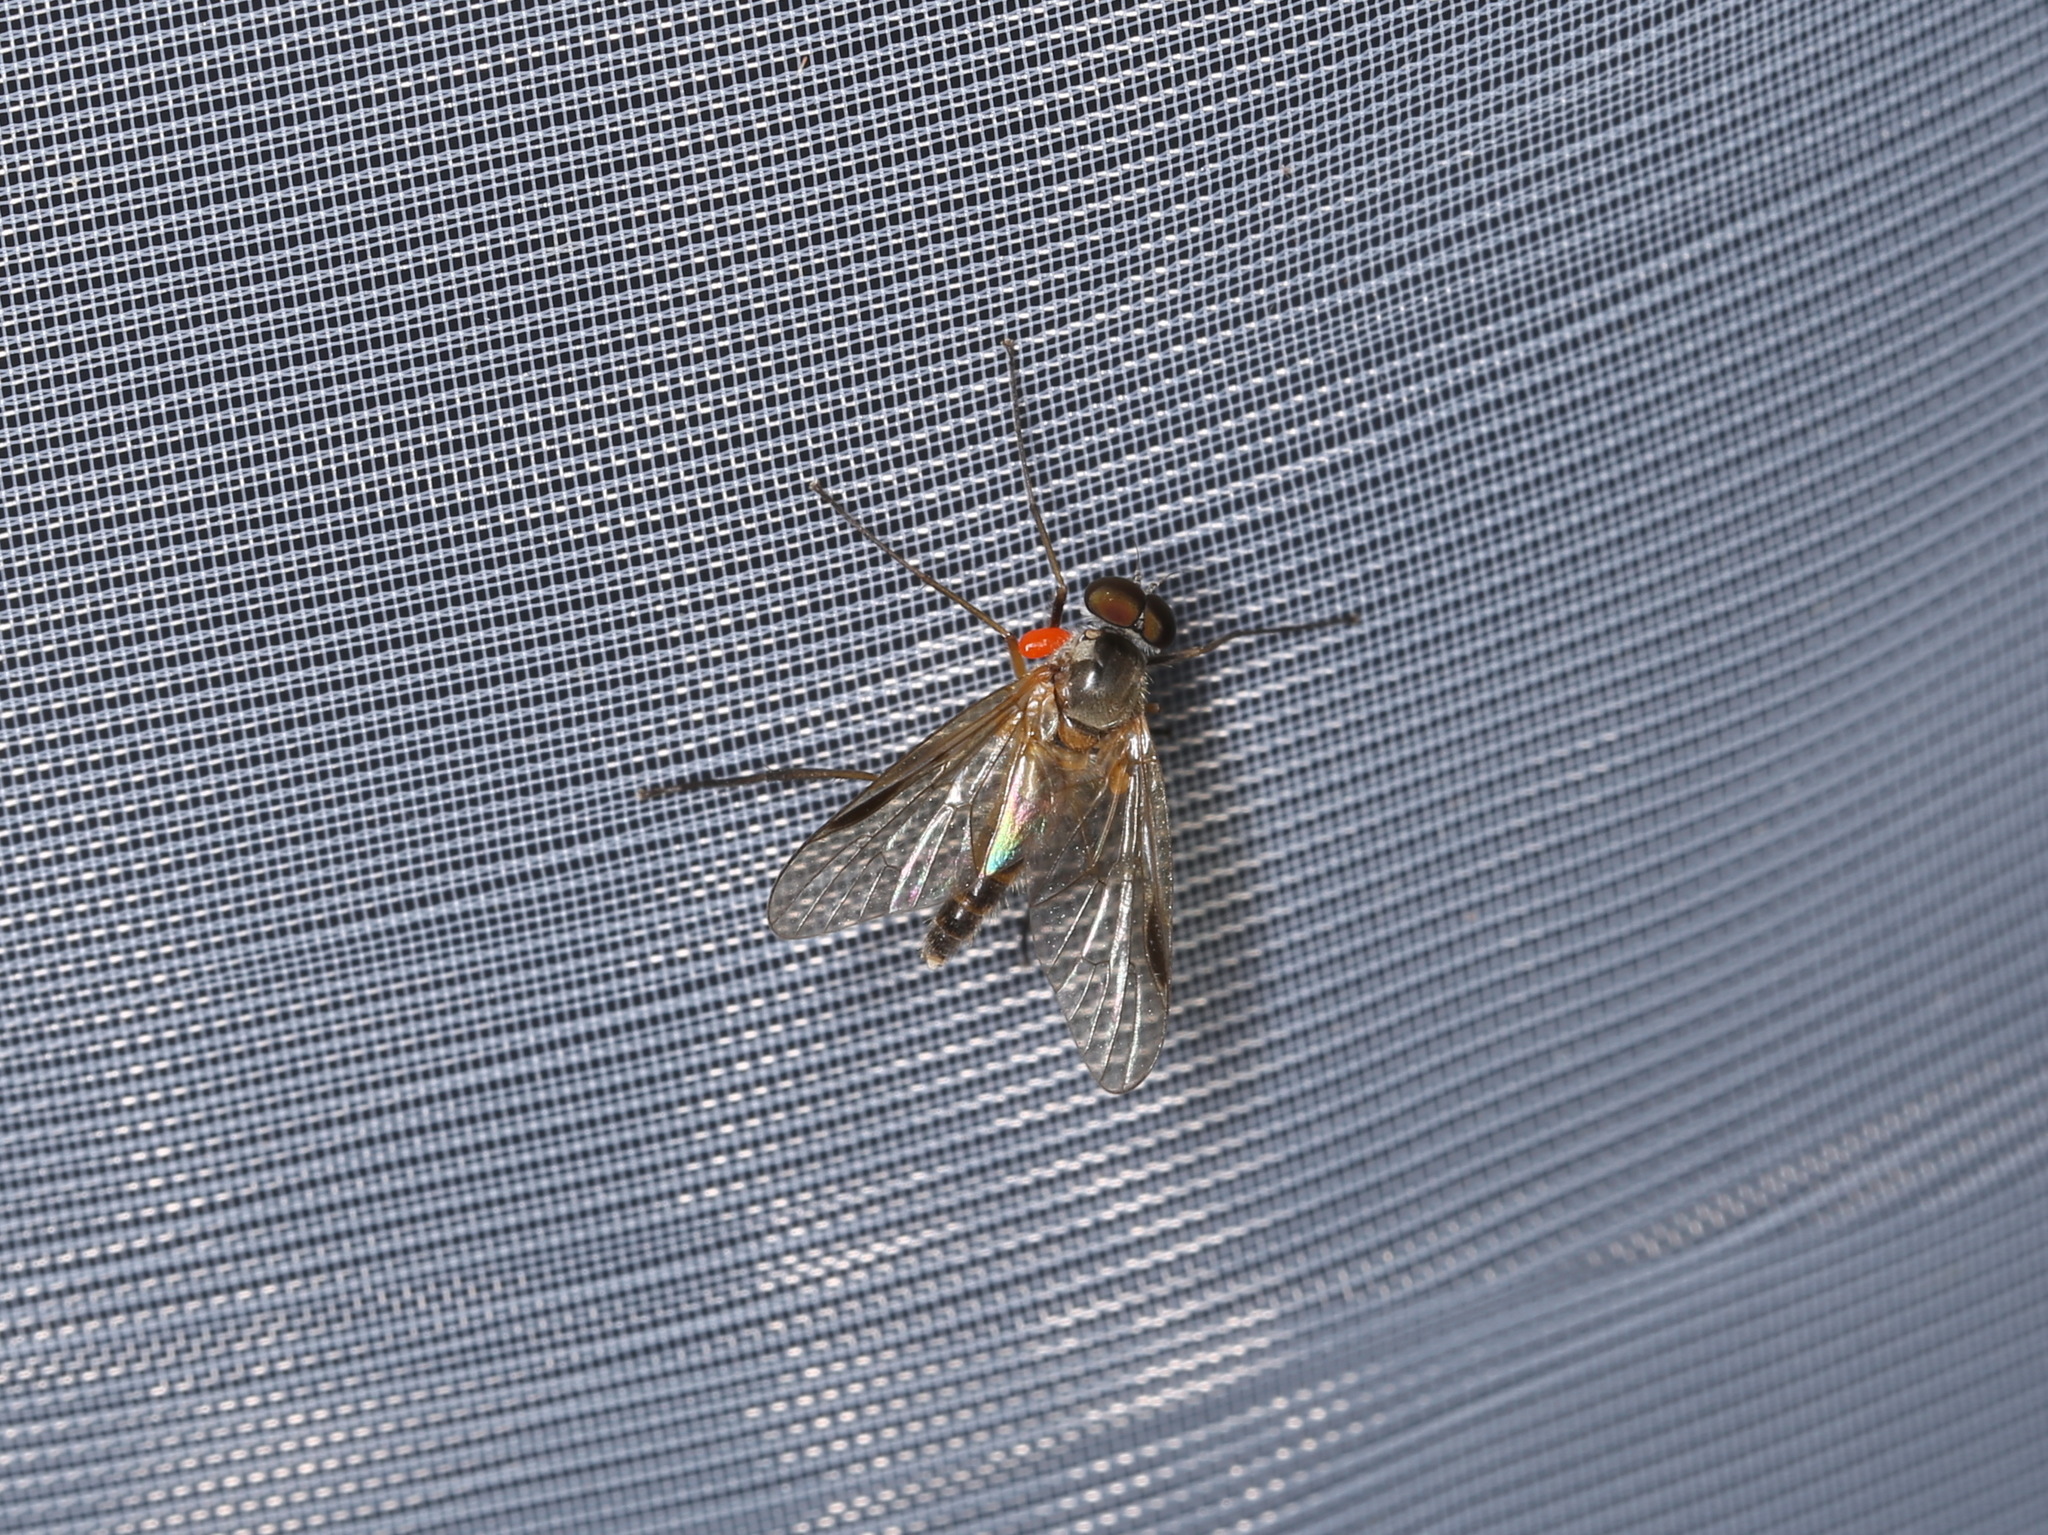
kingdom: Animalia
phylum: Arthropoda
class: Insecta
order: Diptera
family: Rhagionidae
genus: Rhagio
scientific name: Rhagio lineola
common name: Small fleck-winged snipefly
